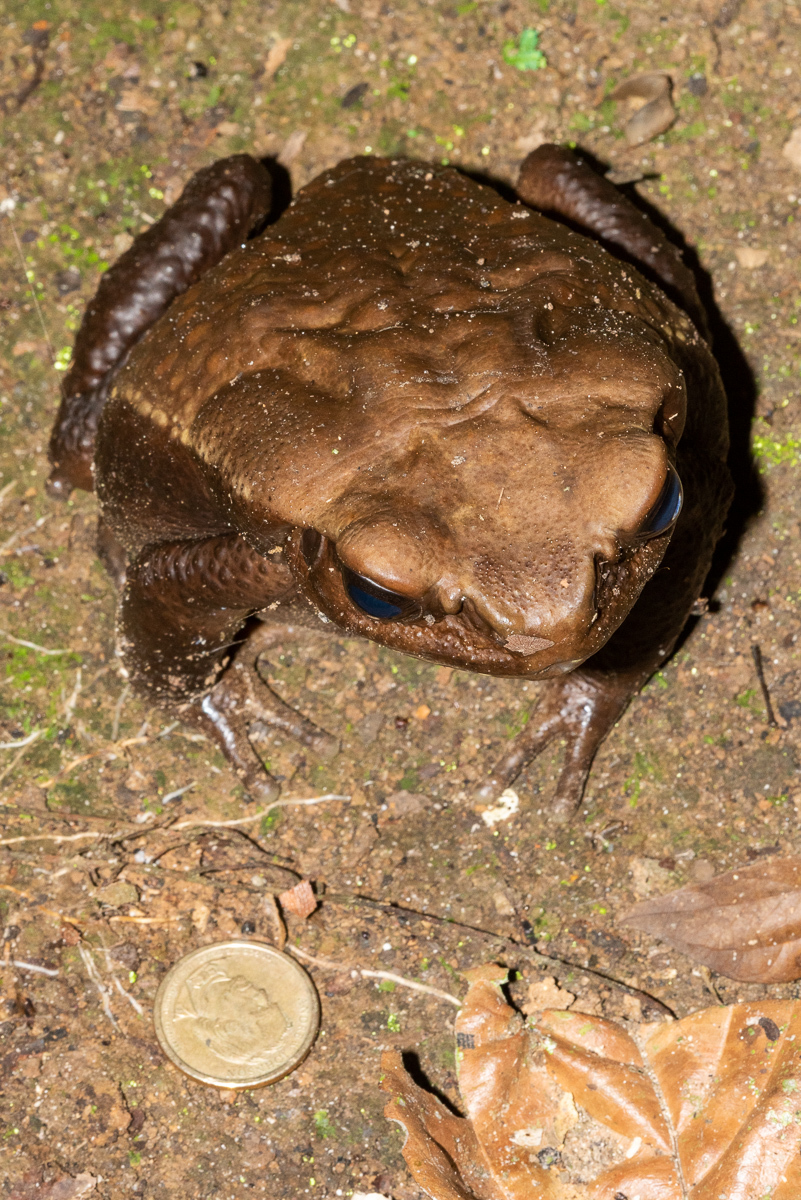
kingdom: Animalia
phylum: Chordata
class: Amphibia
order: Anura
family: Bufonidae
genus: Rhaebo
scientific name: Rhaebo guttatus
